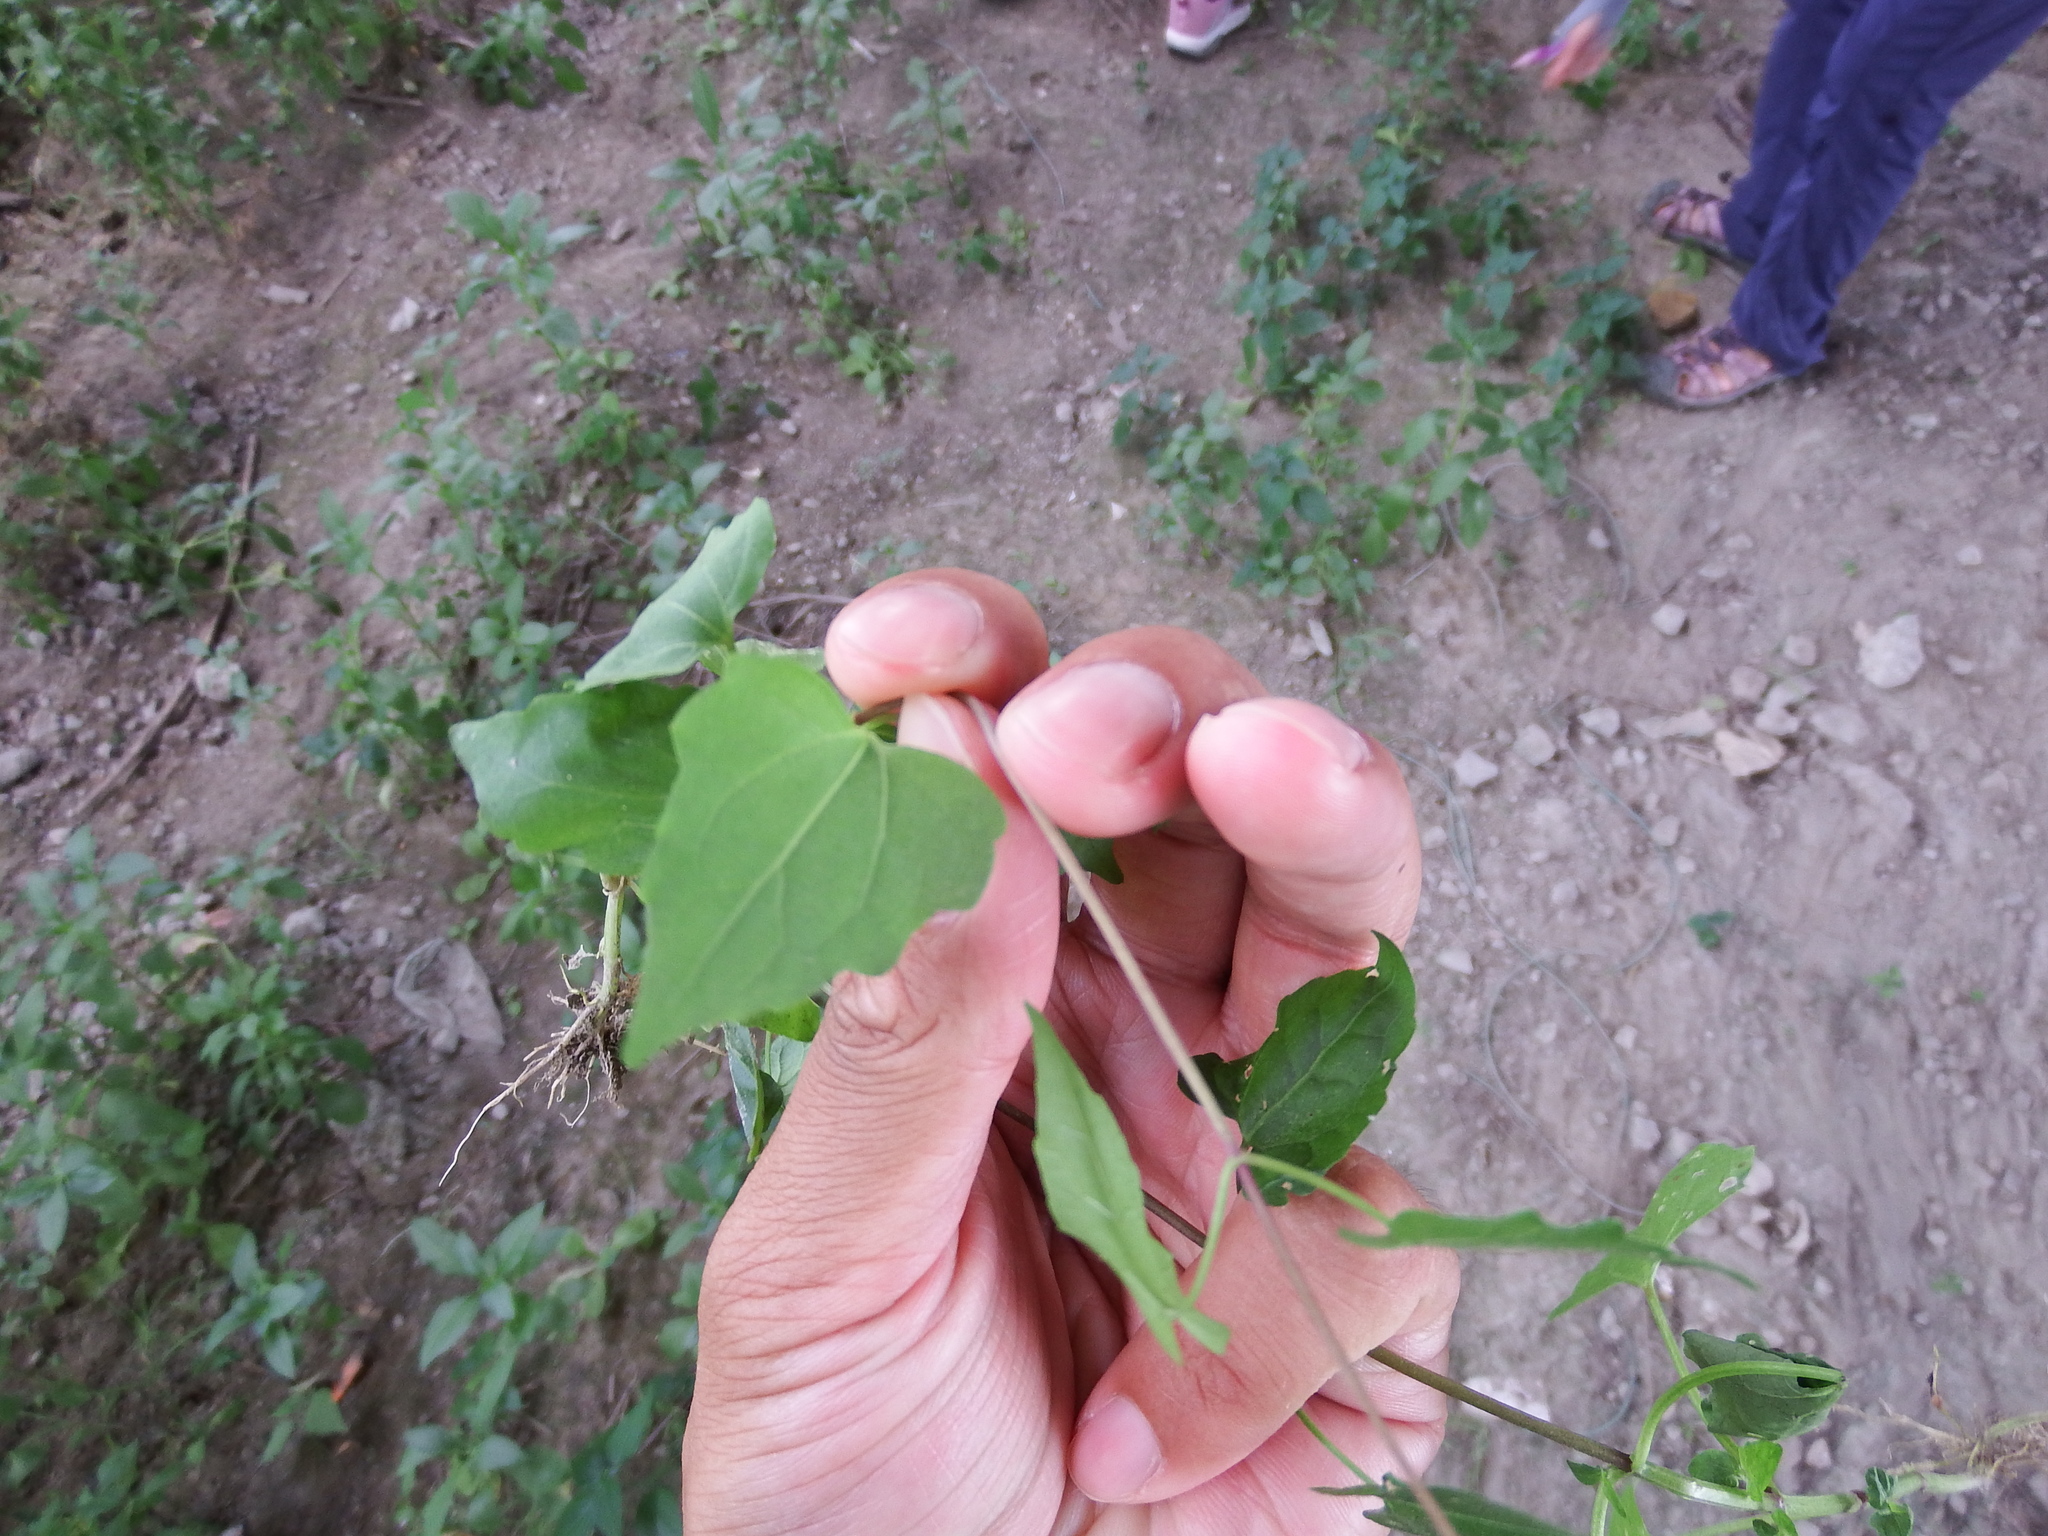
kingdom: Plantae
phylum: Tracheophyta
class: Magnoliopsida
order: Asterales
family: Asteraceae
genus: Mikania
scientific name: Mikania micrantha
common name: Mile-a-minute
